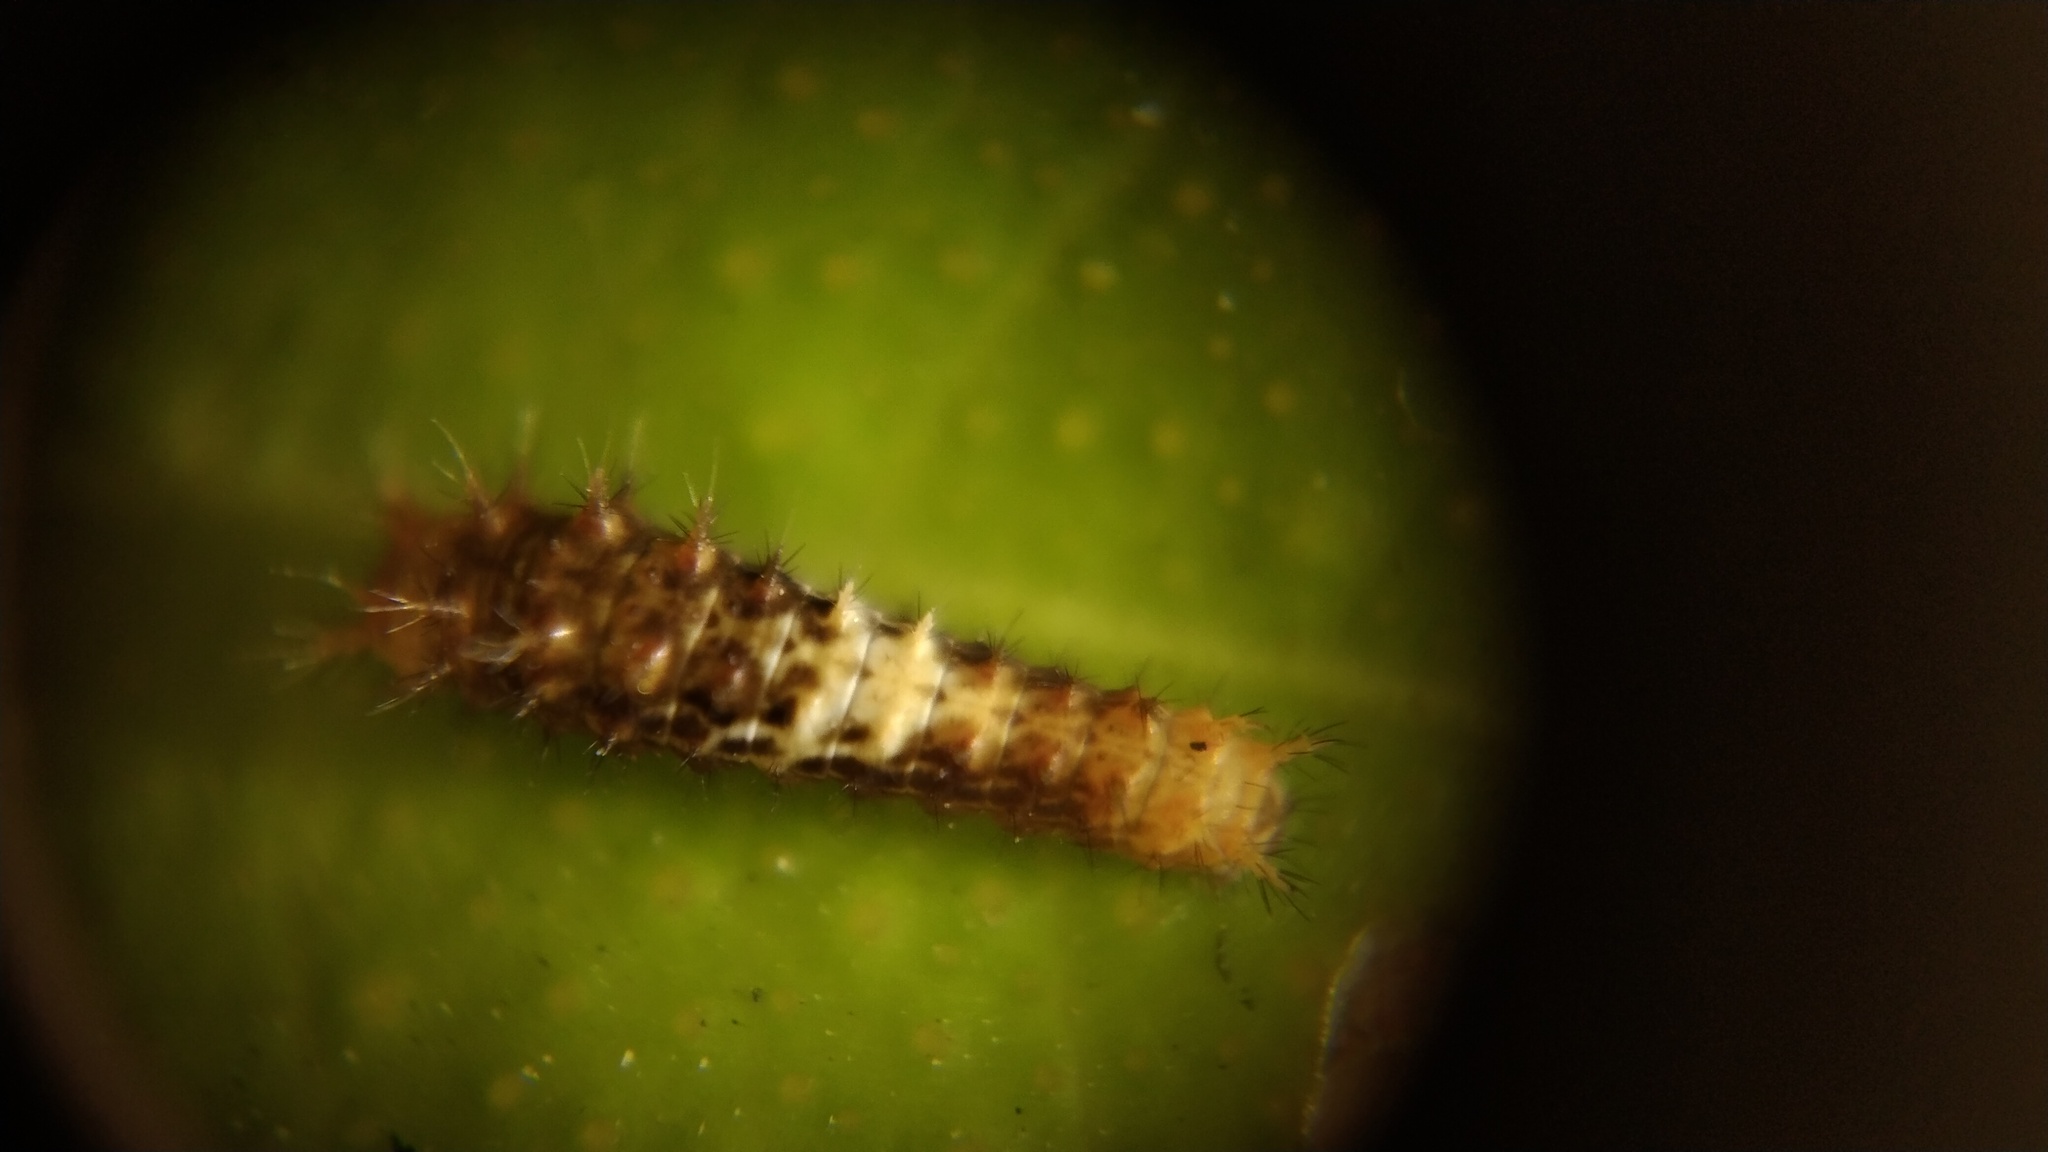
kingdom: Animalia
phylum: Arthropoda
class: Insecta
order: Lepidoptera
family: Papilionidae
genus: Papilio
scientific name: Papilio demoleus
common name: Lime butterfly
